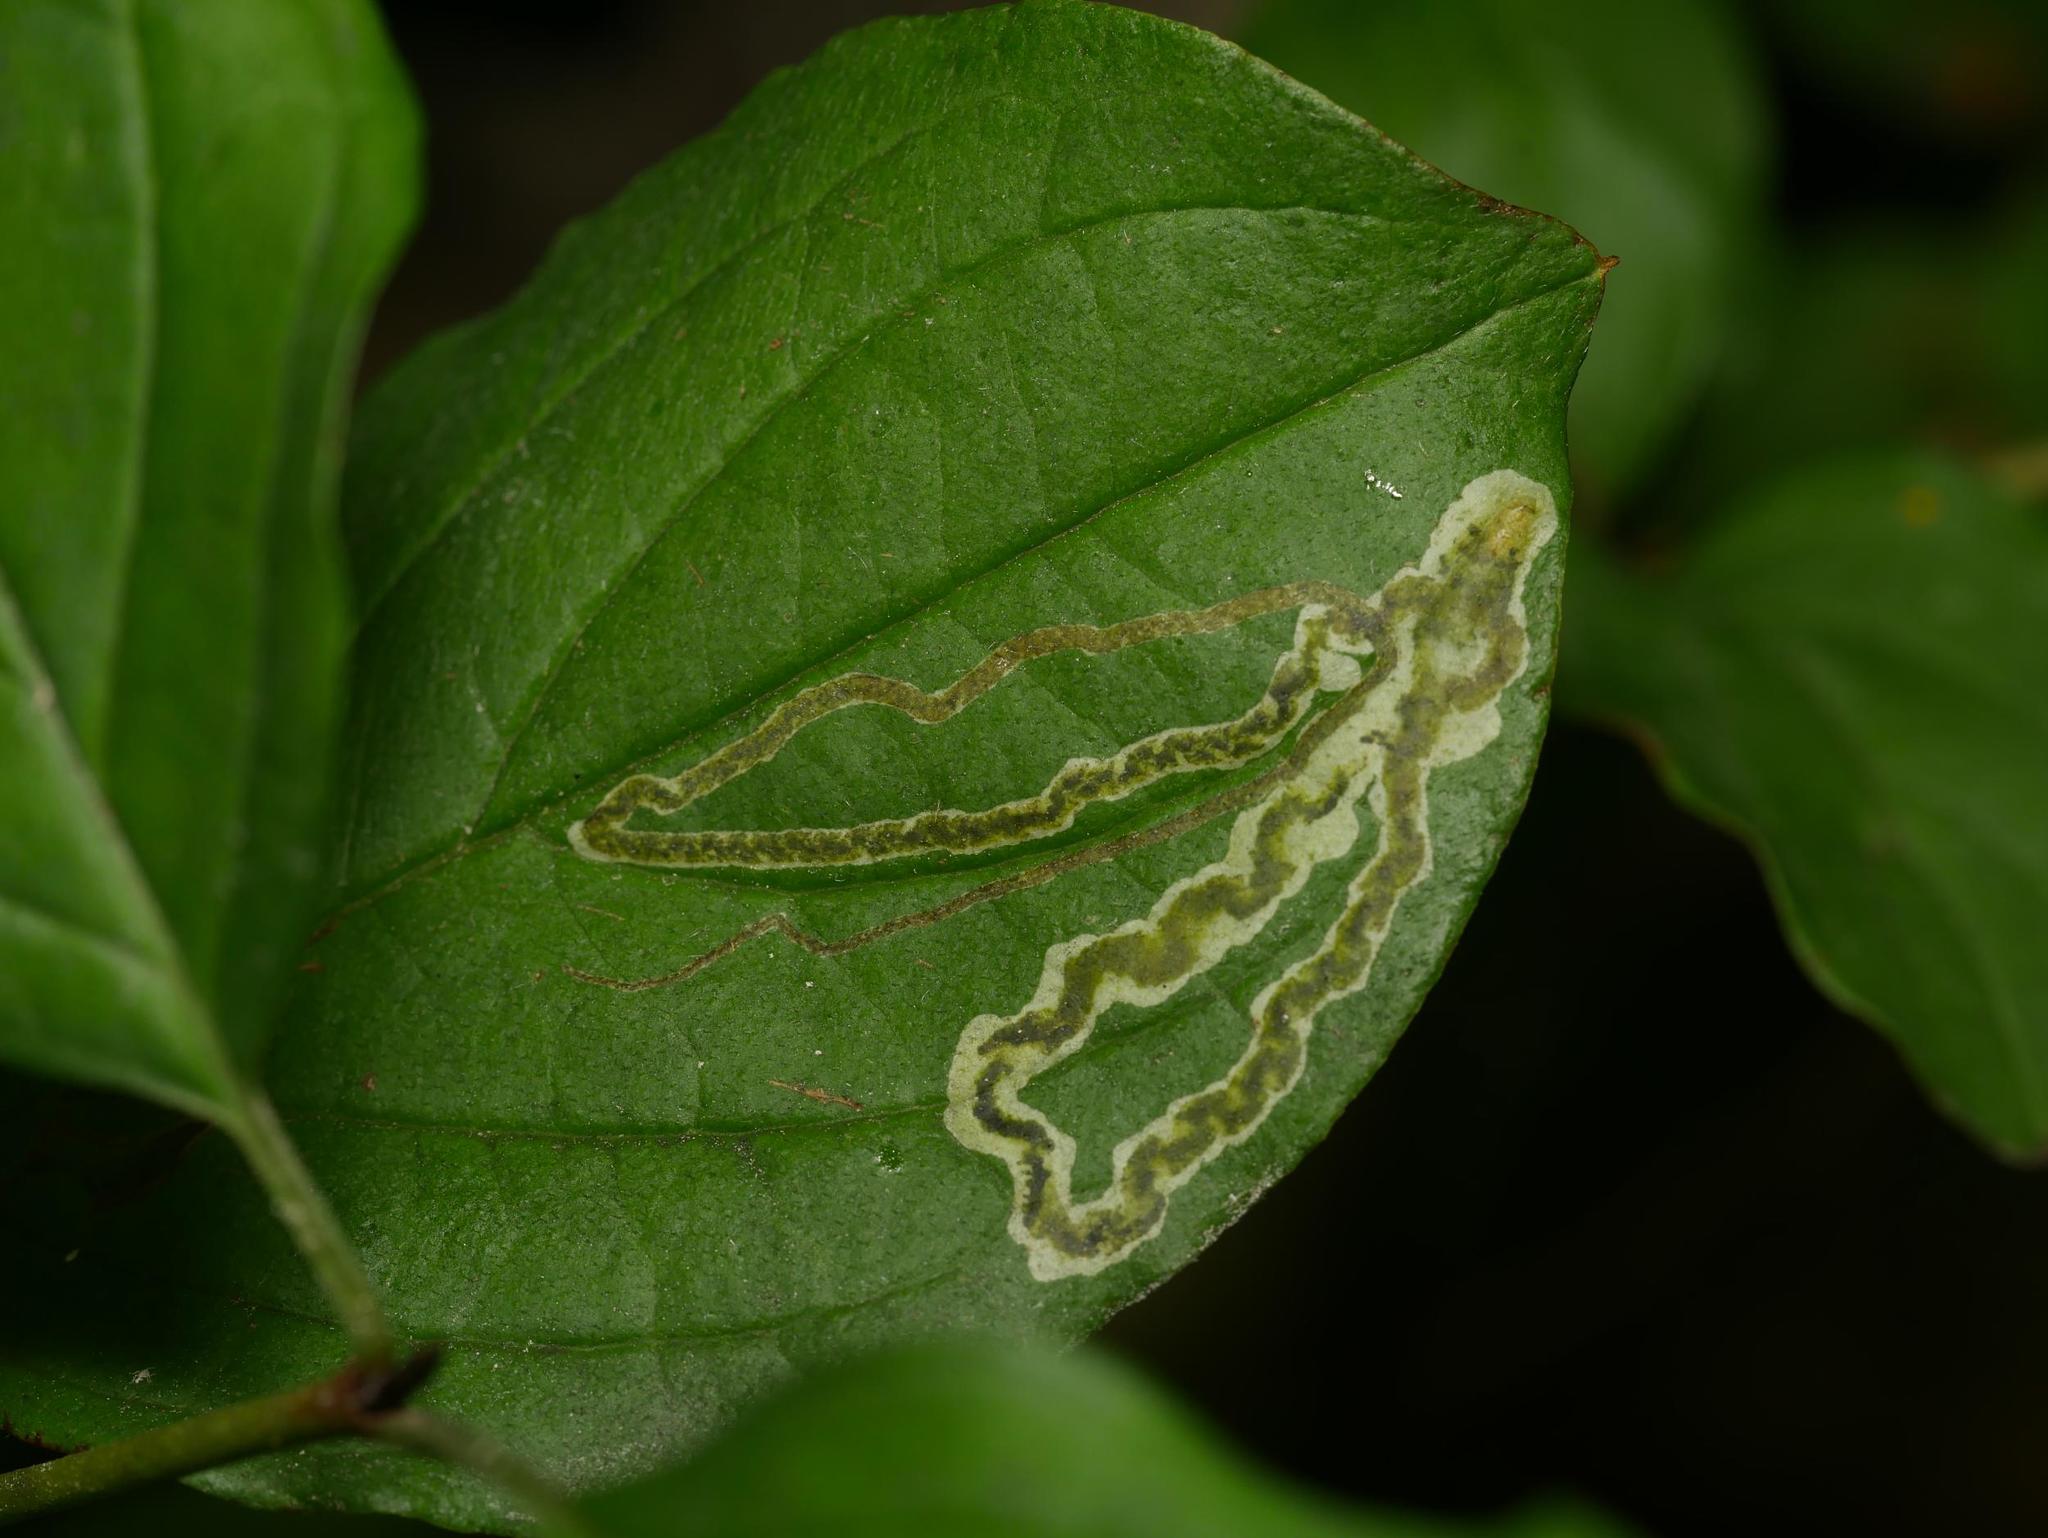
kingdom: Animalia
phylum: Arthropoda
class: Insecta
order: Diptera
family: Agromyzidae
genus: Phytomyza
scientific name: Phytomyza agromyzina
